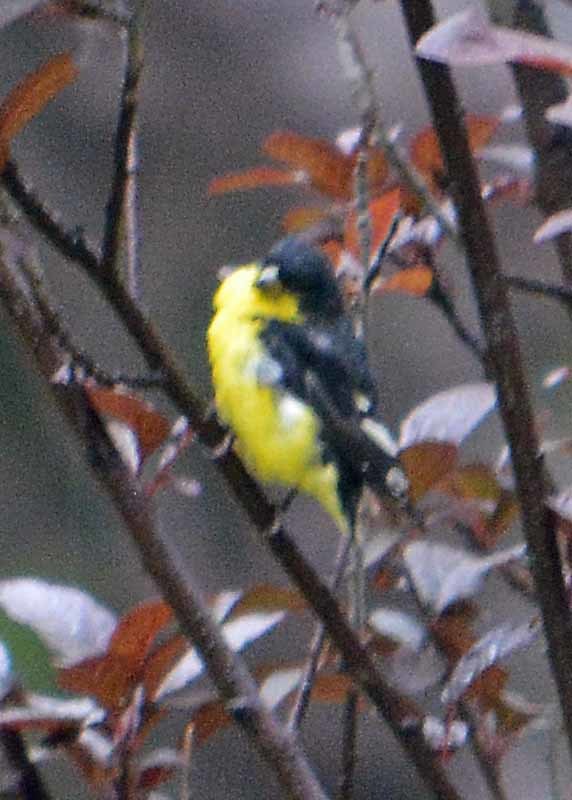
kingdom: Animalia
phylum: Chordata
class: Aves
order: Passeriformes
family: Fringillidae
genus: Spinus
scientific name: Spinus psaltria
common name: Lesser goldfinch
